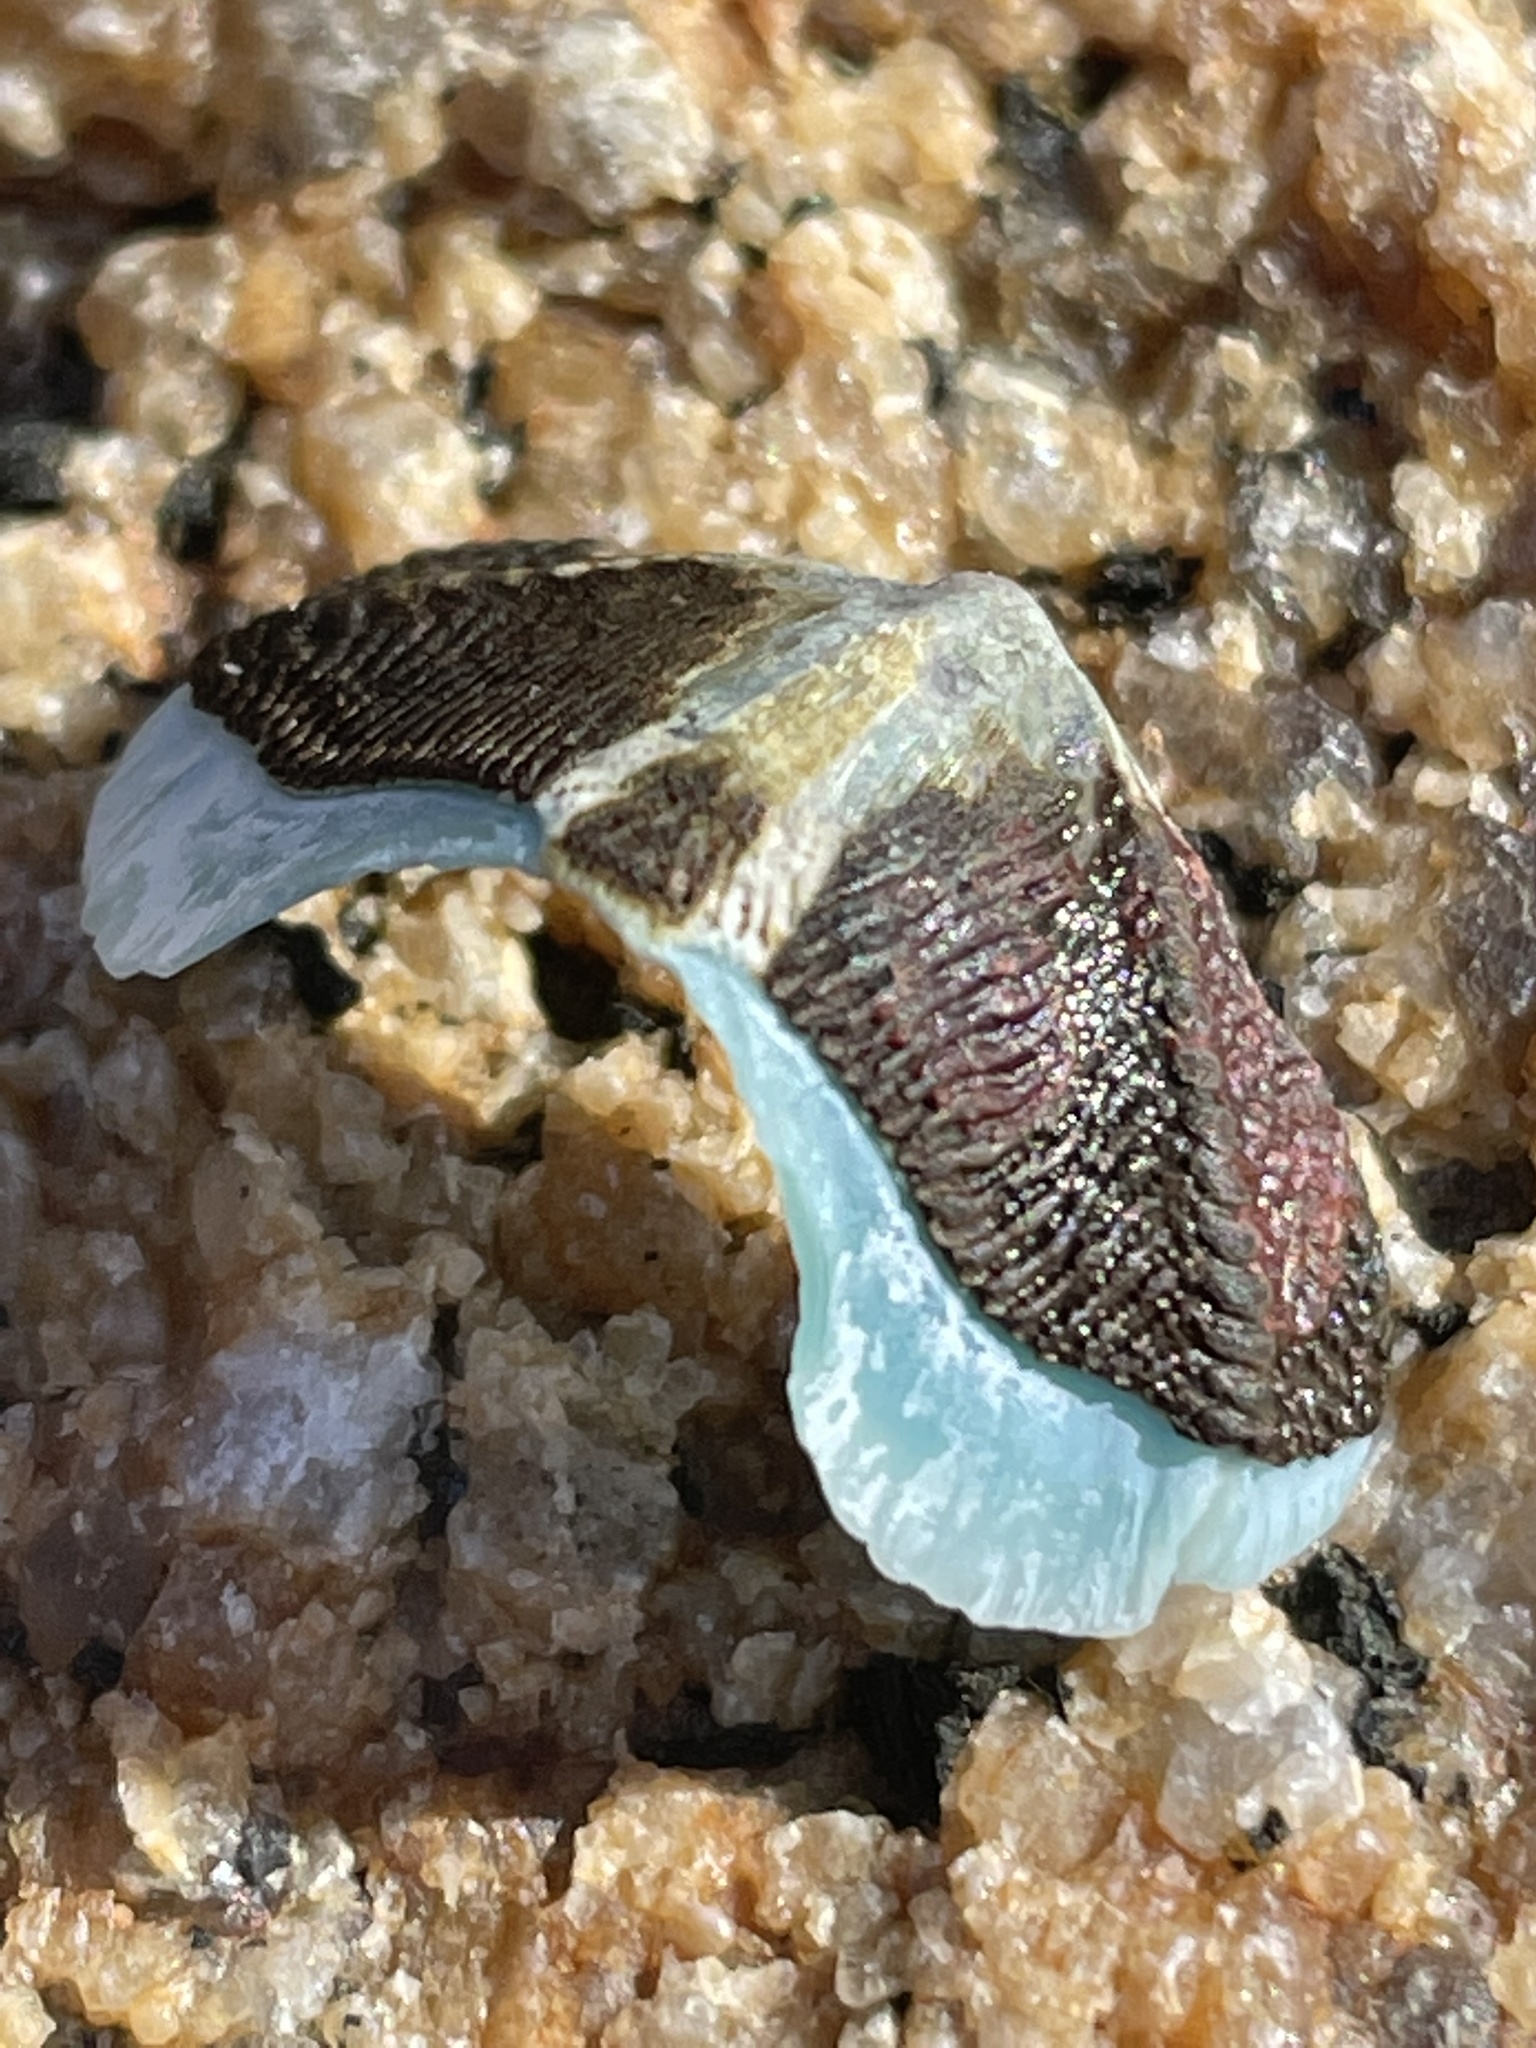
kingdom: Animalia
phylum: Mollusca
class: Polyplacophora
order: Chitonida
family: Mopaliidae
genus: Mopalia
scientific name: Mopalia muscosa
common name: Mossy chiton
